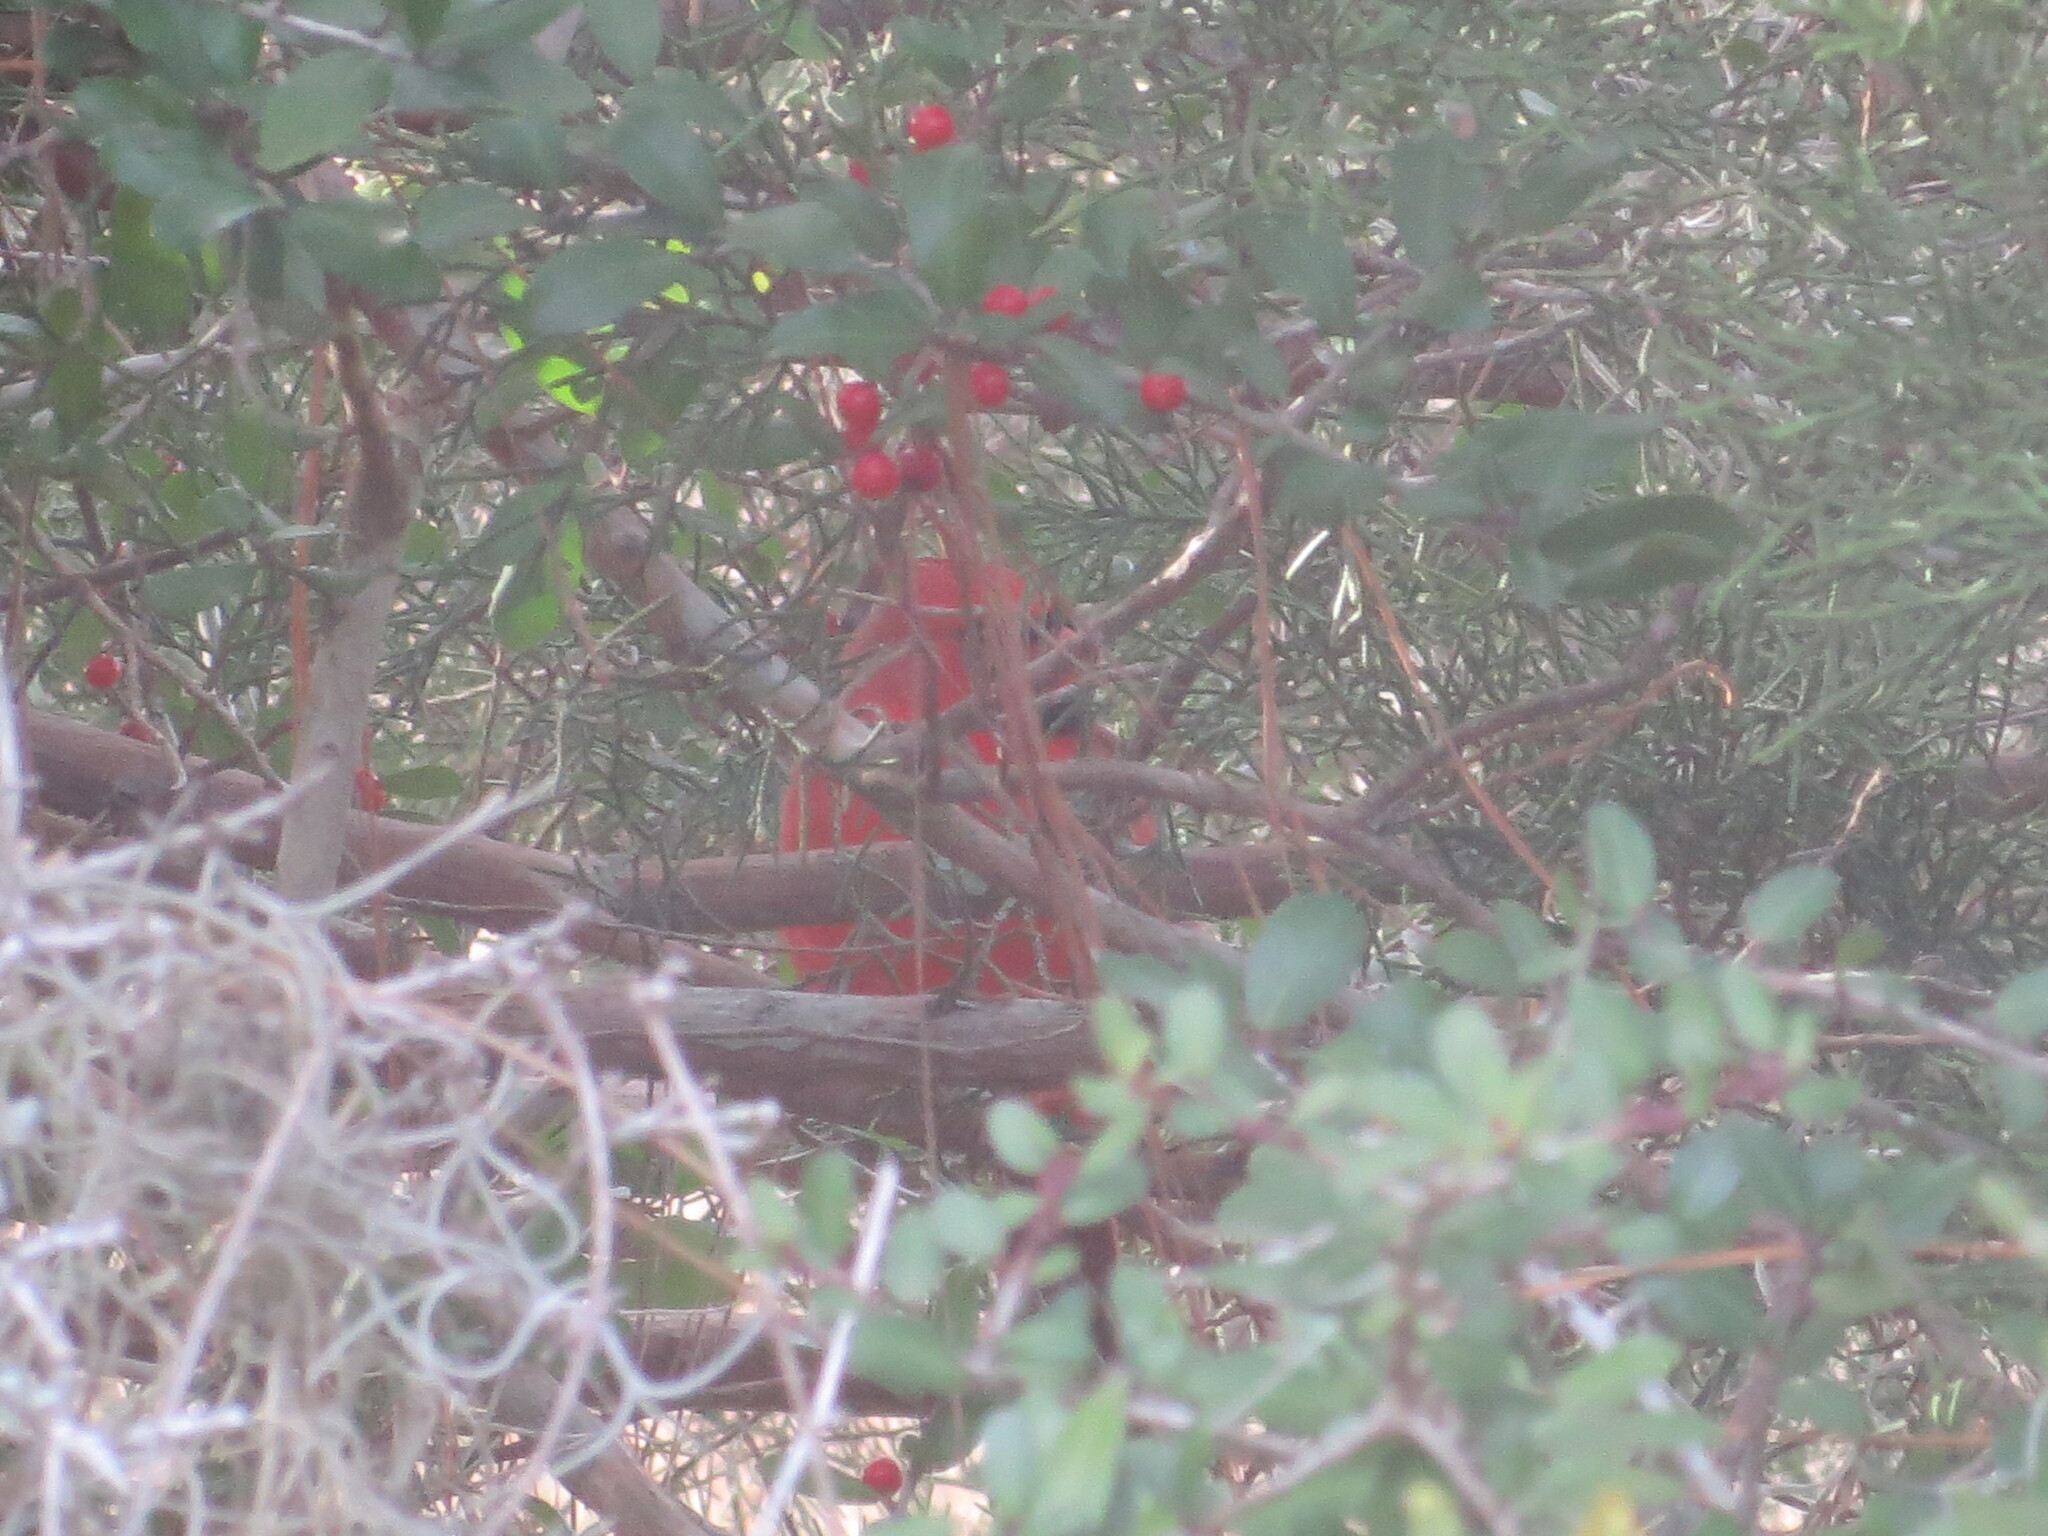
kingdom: Animalia
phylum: Chordata
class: Aves
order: Passeriformes
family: Cardinalidae
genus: Cardinalis
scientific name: Cardinalis cardinalis
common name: Northern cardinal
